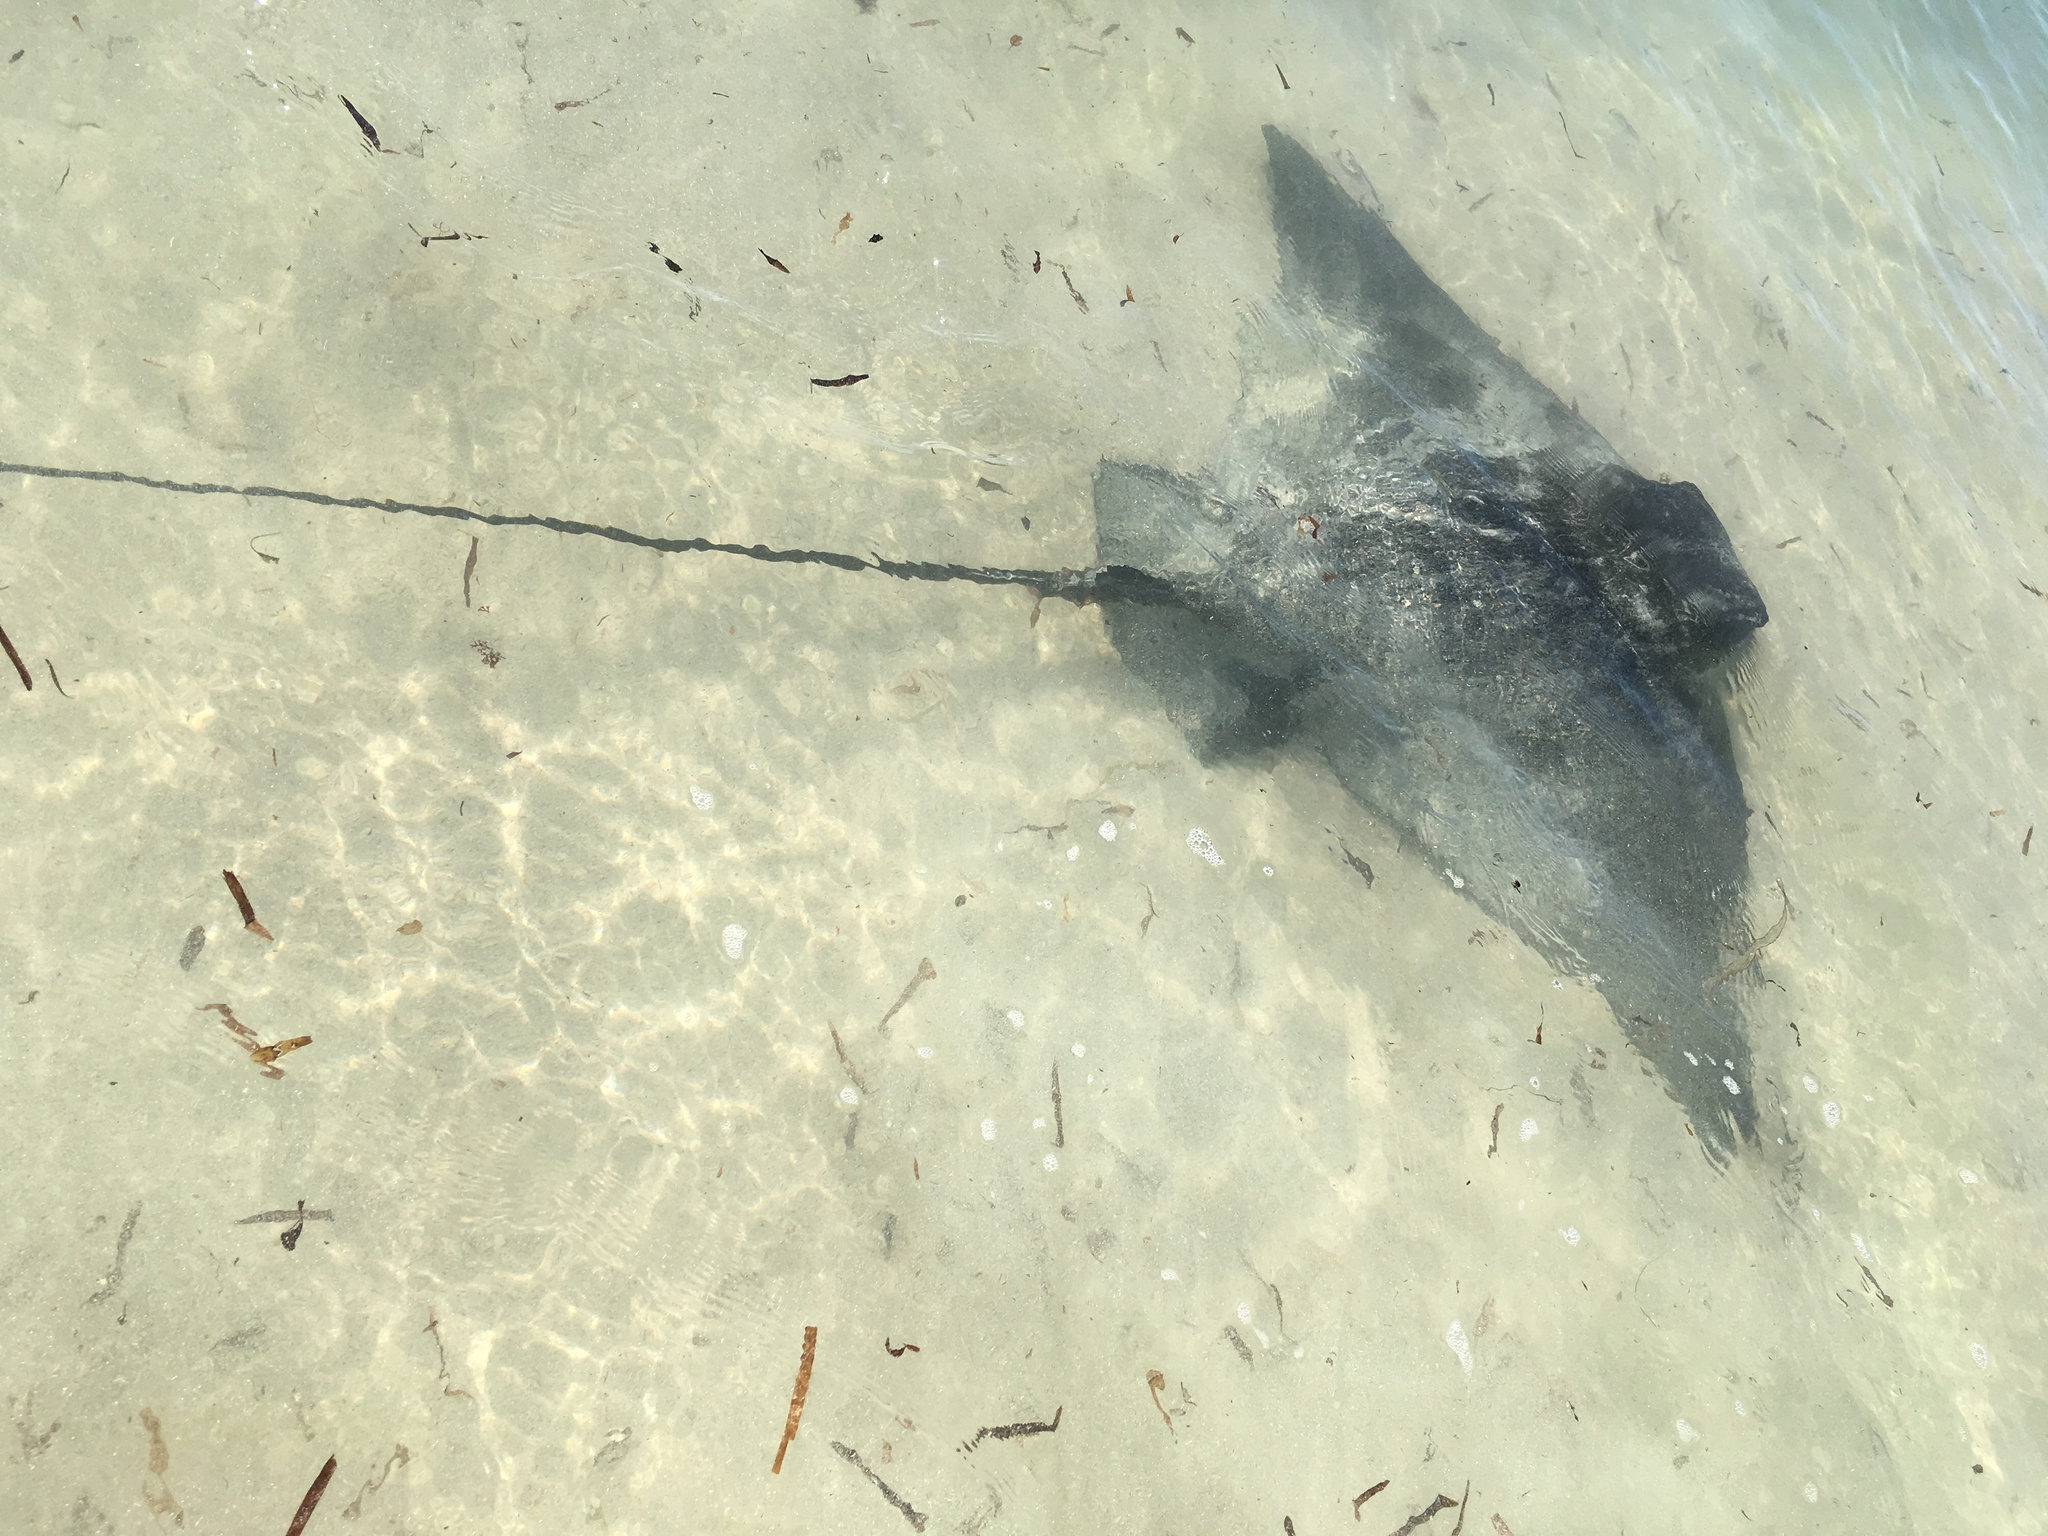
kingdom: Animalia
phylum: Chordata
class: Elasmobranchii
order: Myliobatiformes
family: Myliobatidae
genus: Myliobatis
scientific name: Myliobatis tenuicaudatus
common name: Eagle ray
